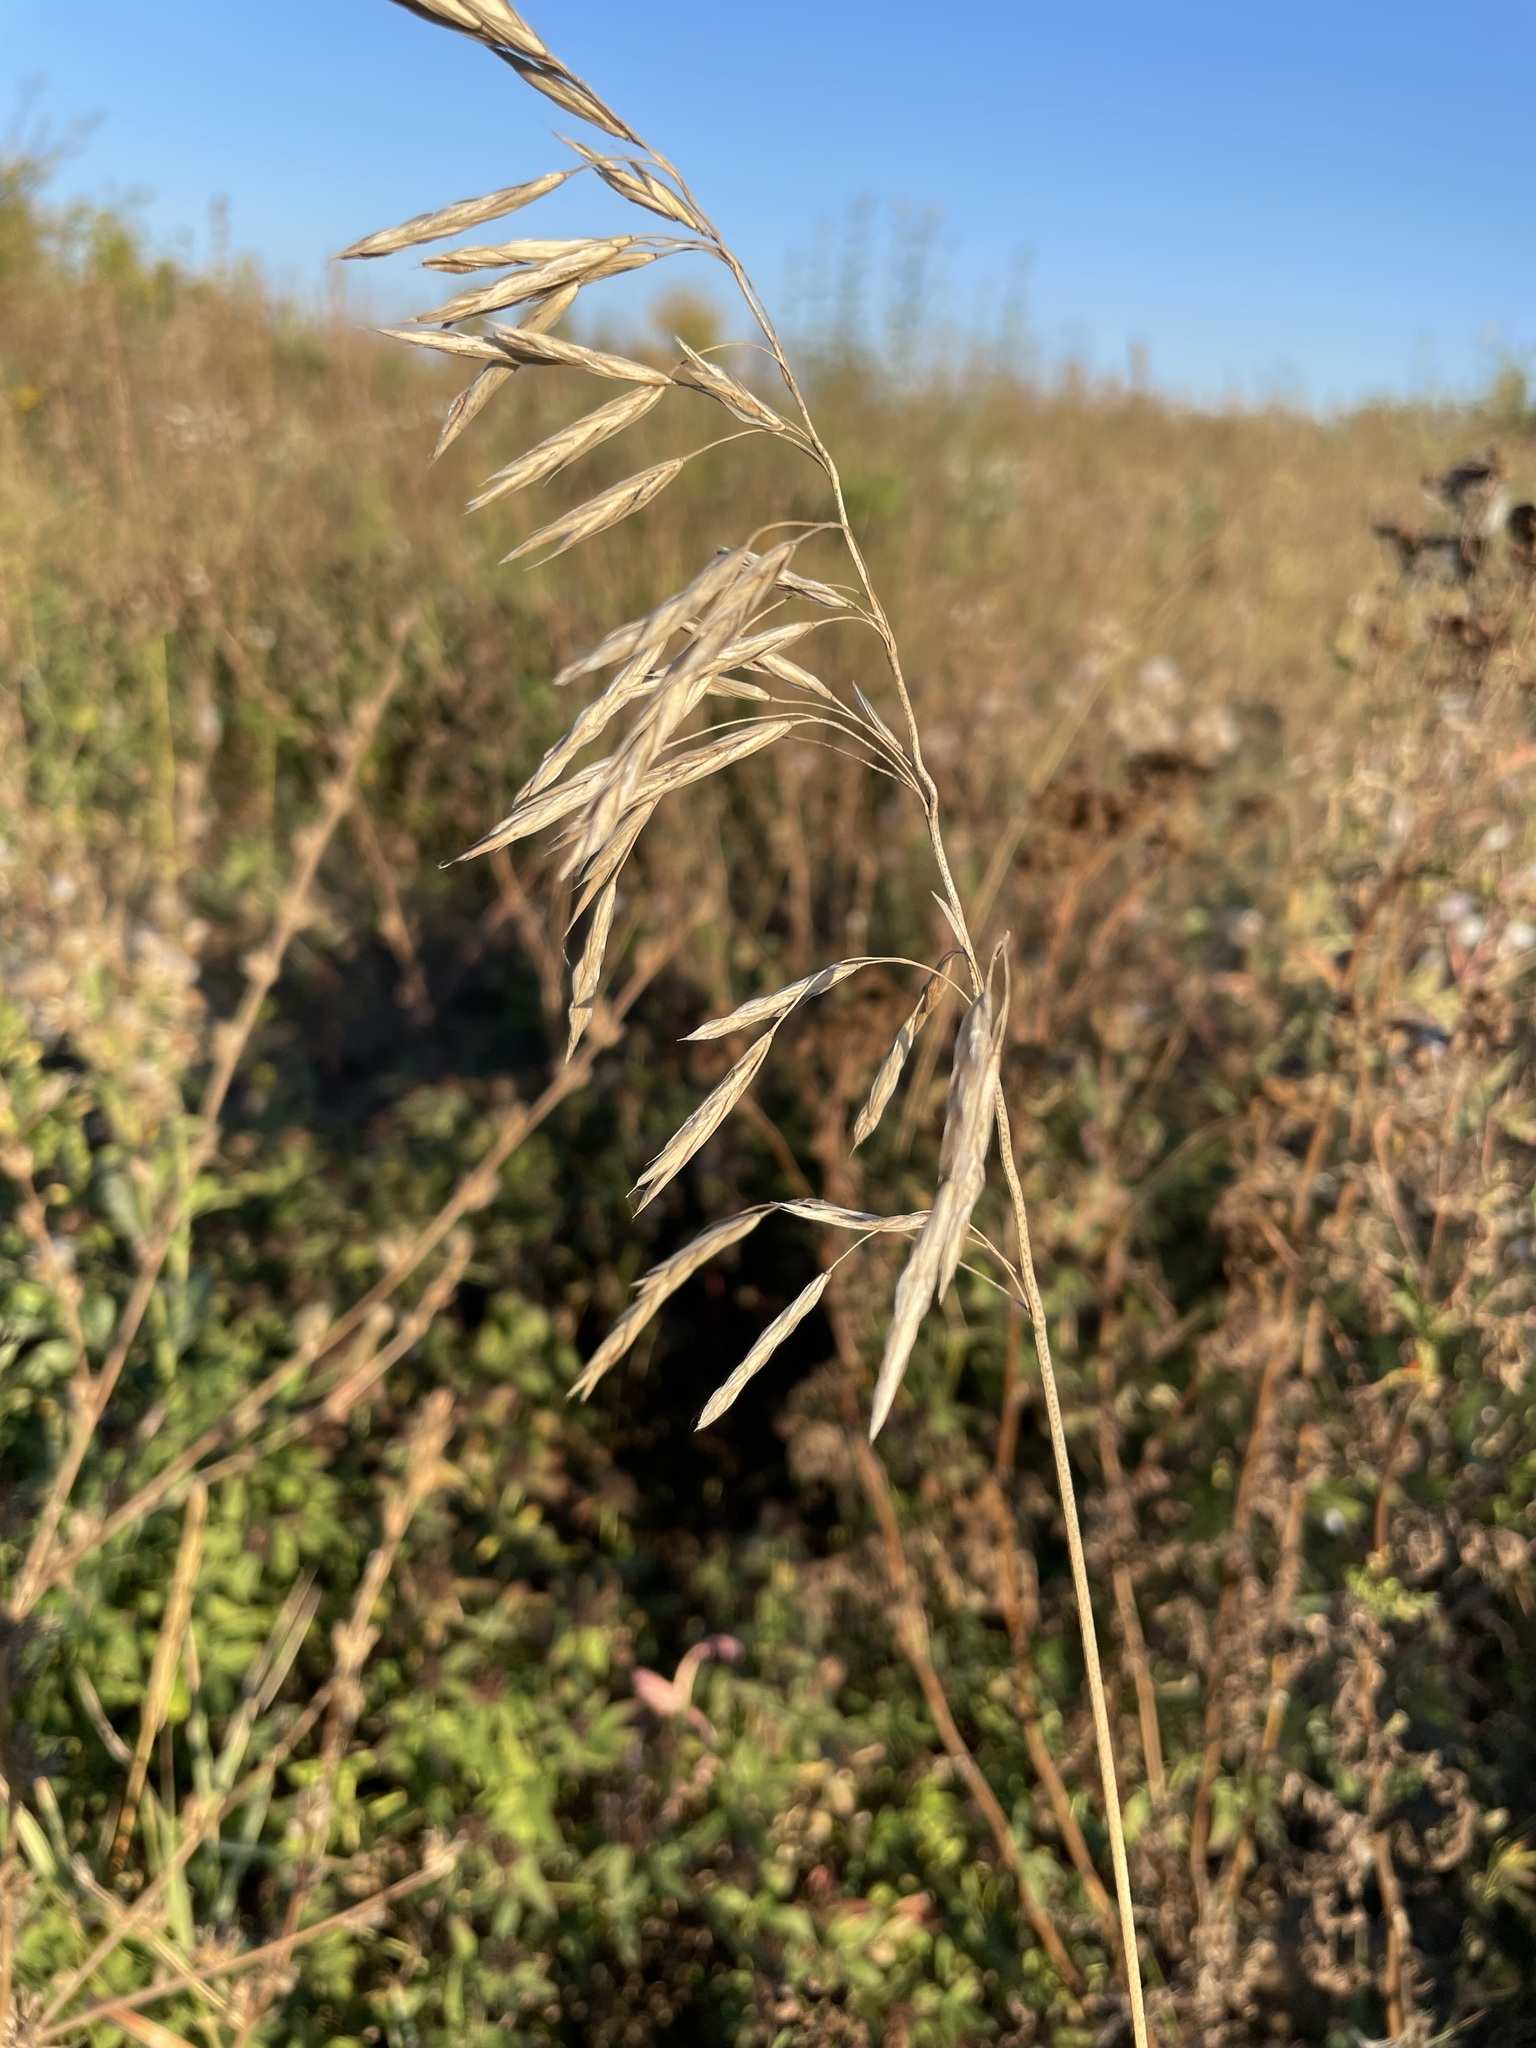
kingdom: Plantae
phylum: Tracheophyta
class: Liliopsida
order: Poales
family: Poaceae
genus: Bromus
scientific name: Bromus inermis
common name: Smooth brome
